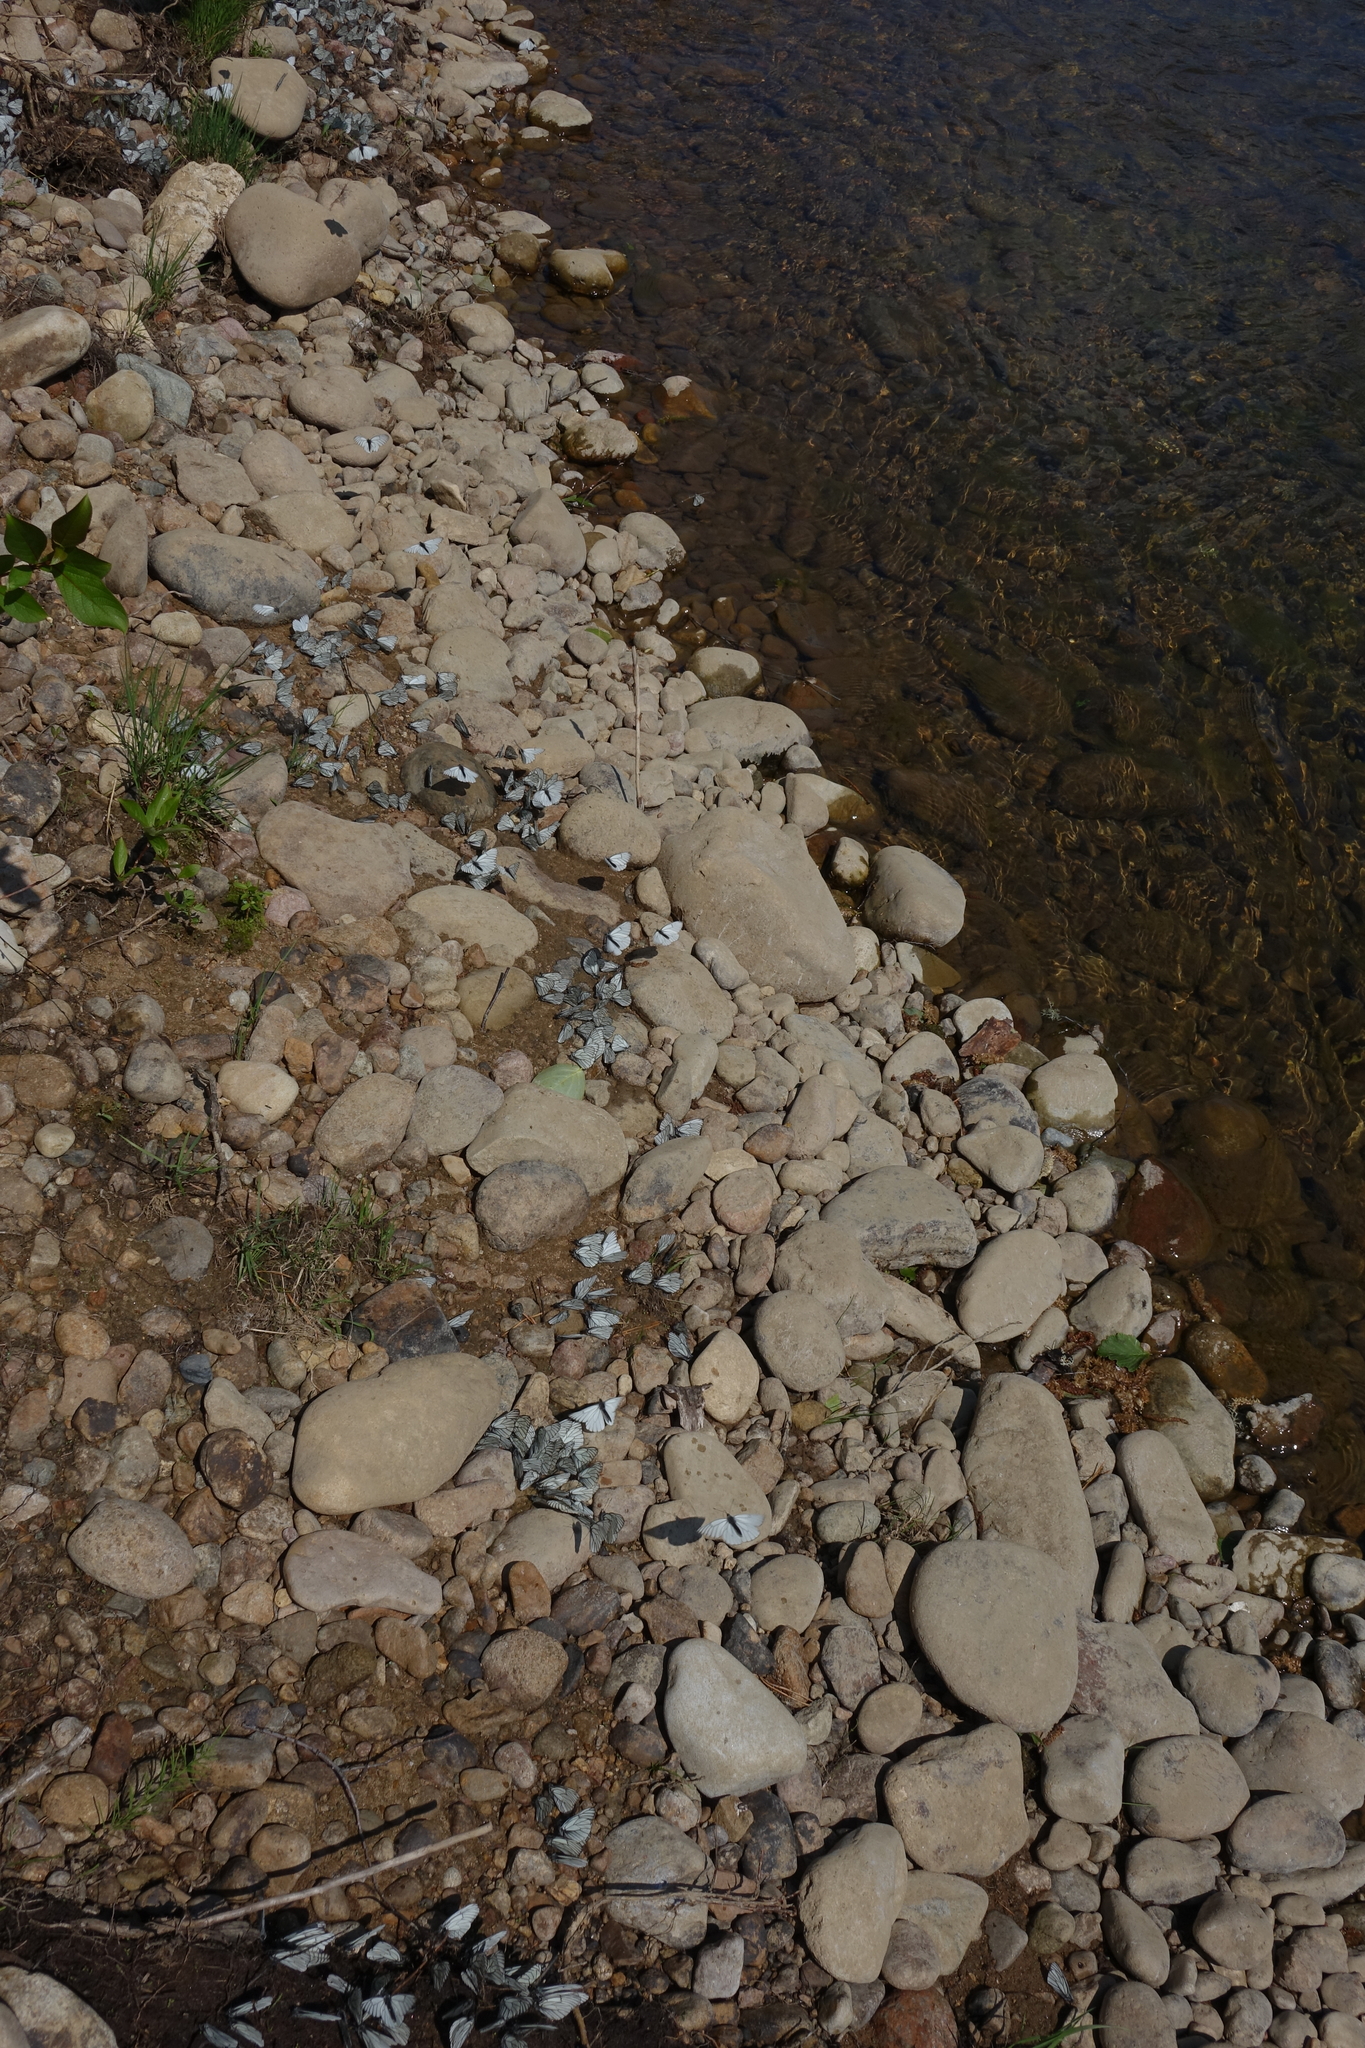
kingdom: Animalia
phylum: Arthropoda
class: Insecta
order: Lepidoptera
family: Pieridae
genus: Aporia
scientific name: Aporia crataegi
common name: Black-veined white
